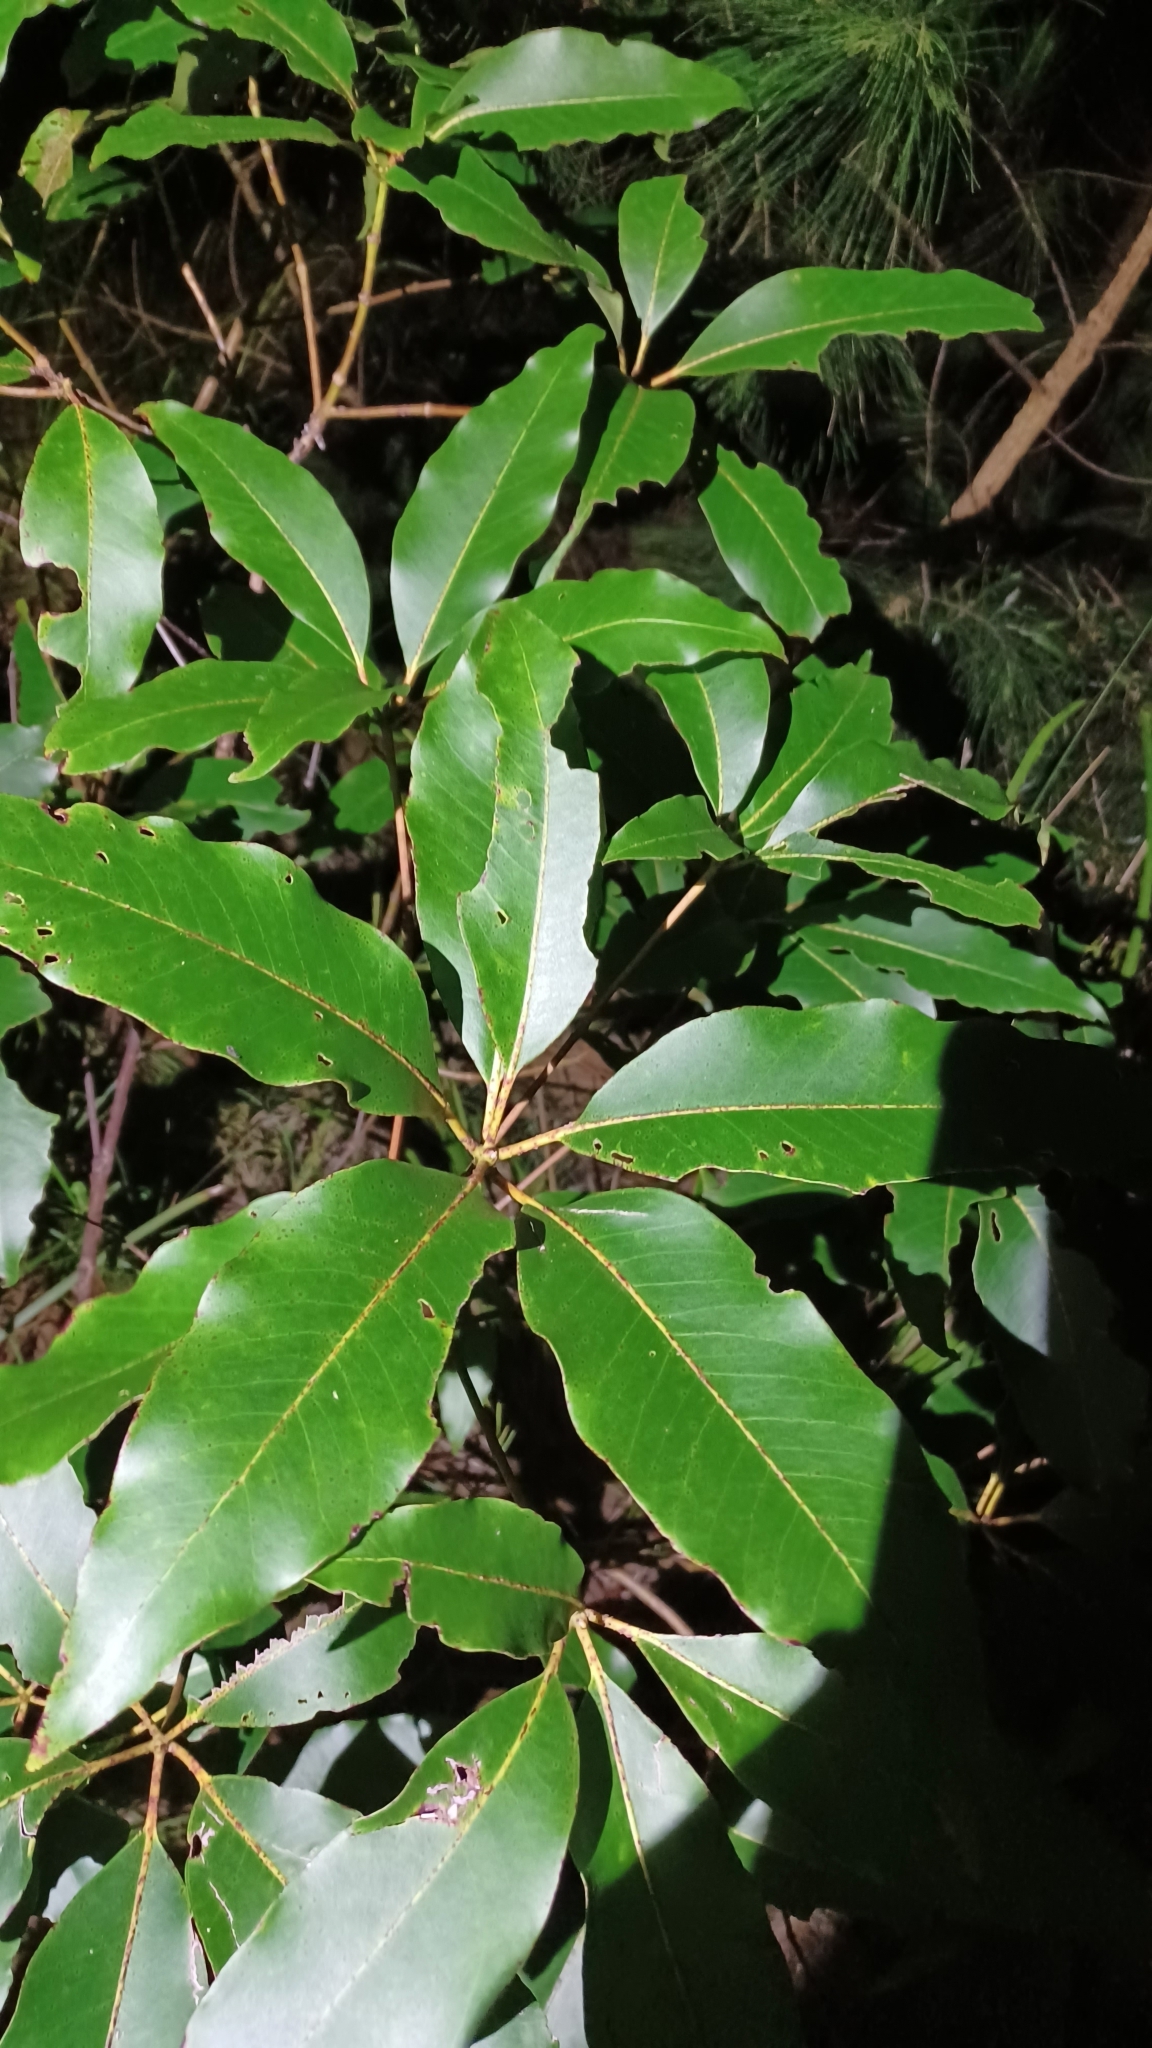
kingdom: Plantae
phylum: Tracheophyta
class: Magnoliopsida
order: Myrtales
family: Myrtaceae
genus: Lophostemon
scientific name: Lophostemon confertus
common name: Brisbane box
